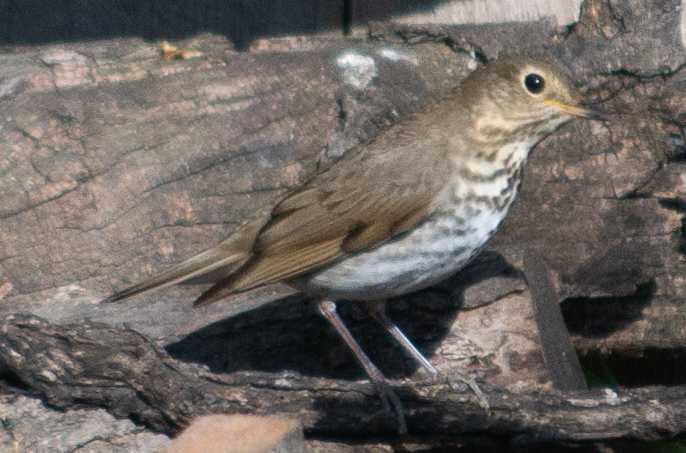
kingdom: Animalia
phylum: Chordata
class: Aves
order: Passeriformes
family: Turdidae
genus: Catharus
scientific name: Catharus ustulatus
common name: Swainson's thrush
